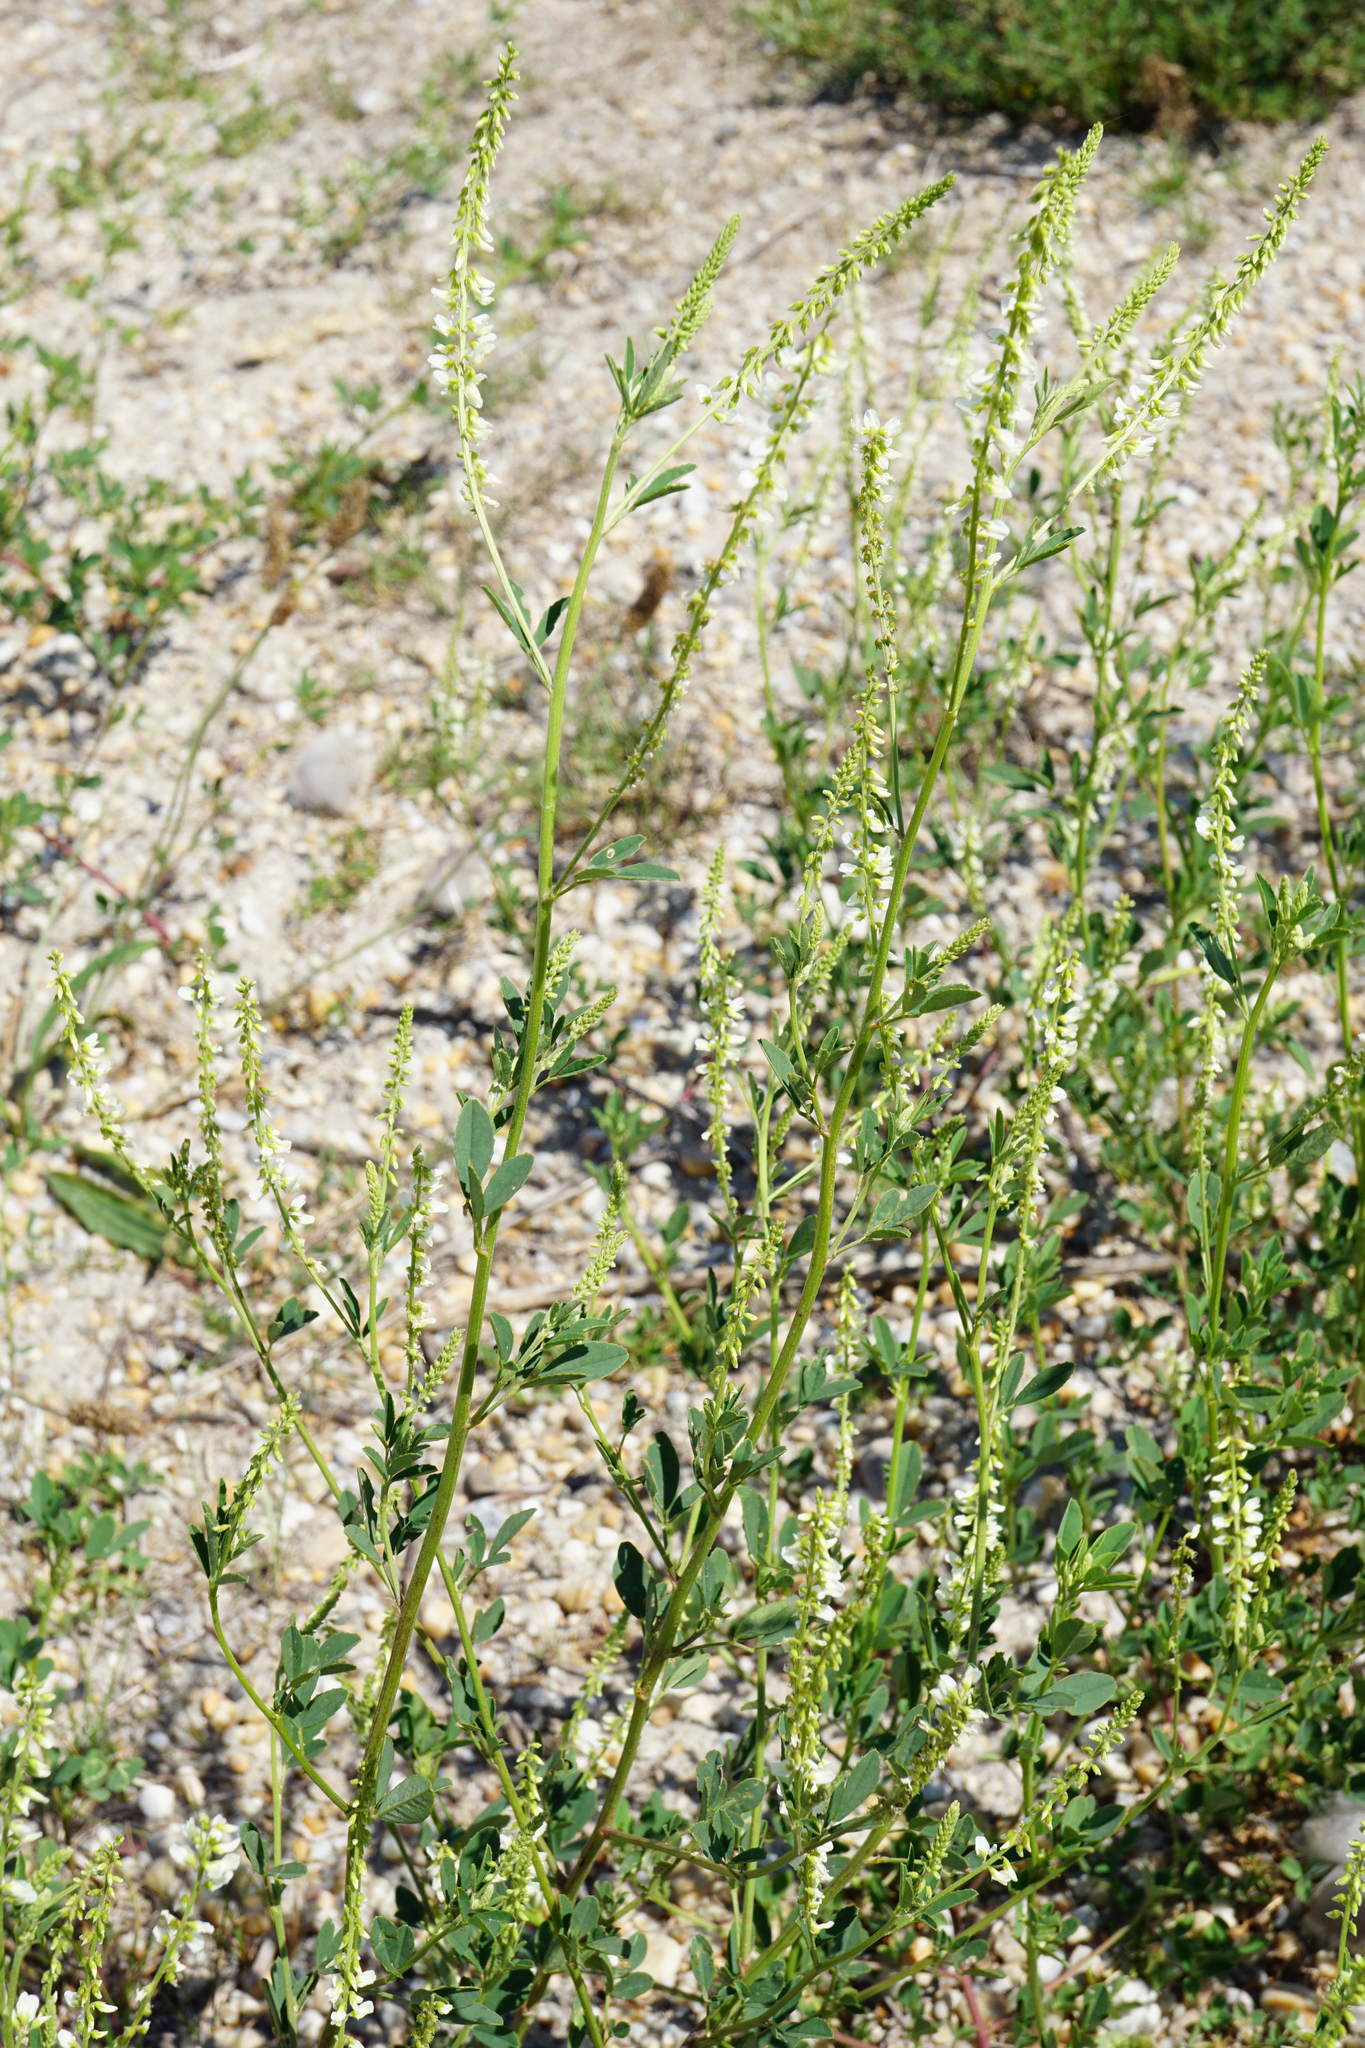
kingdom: Plantae
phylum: Tracheophyta
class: Magnoliopsida
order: Fabales
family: Fabaceae
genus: Melilotus
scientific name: Melilotus albus
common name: White melilot
